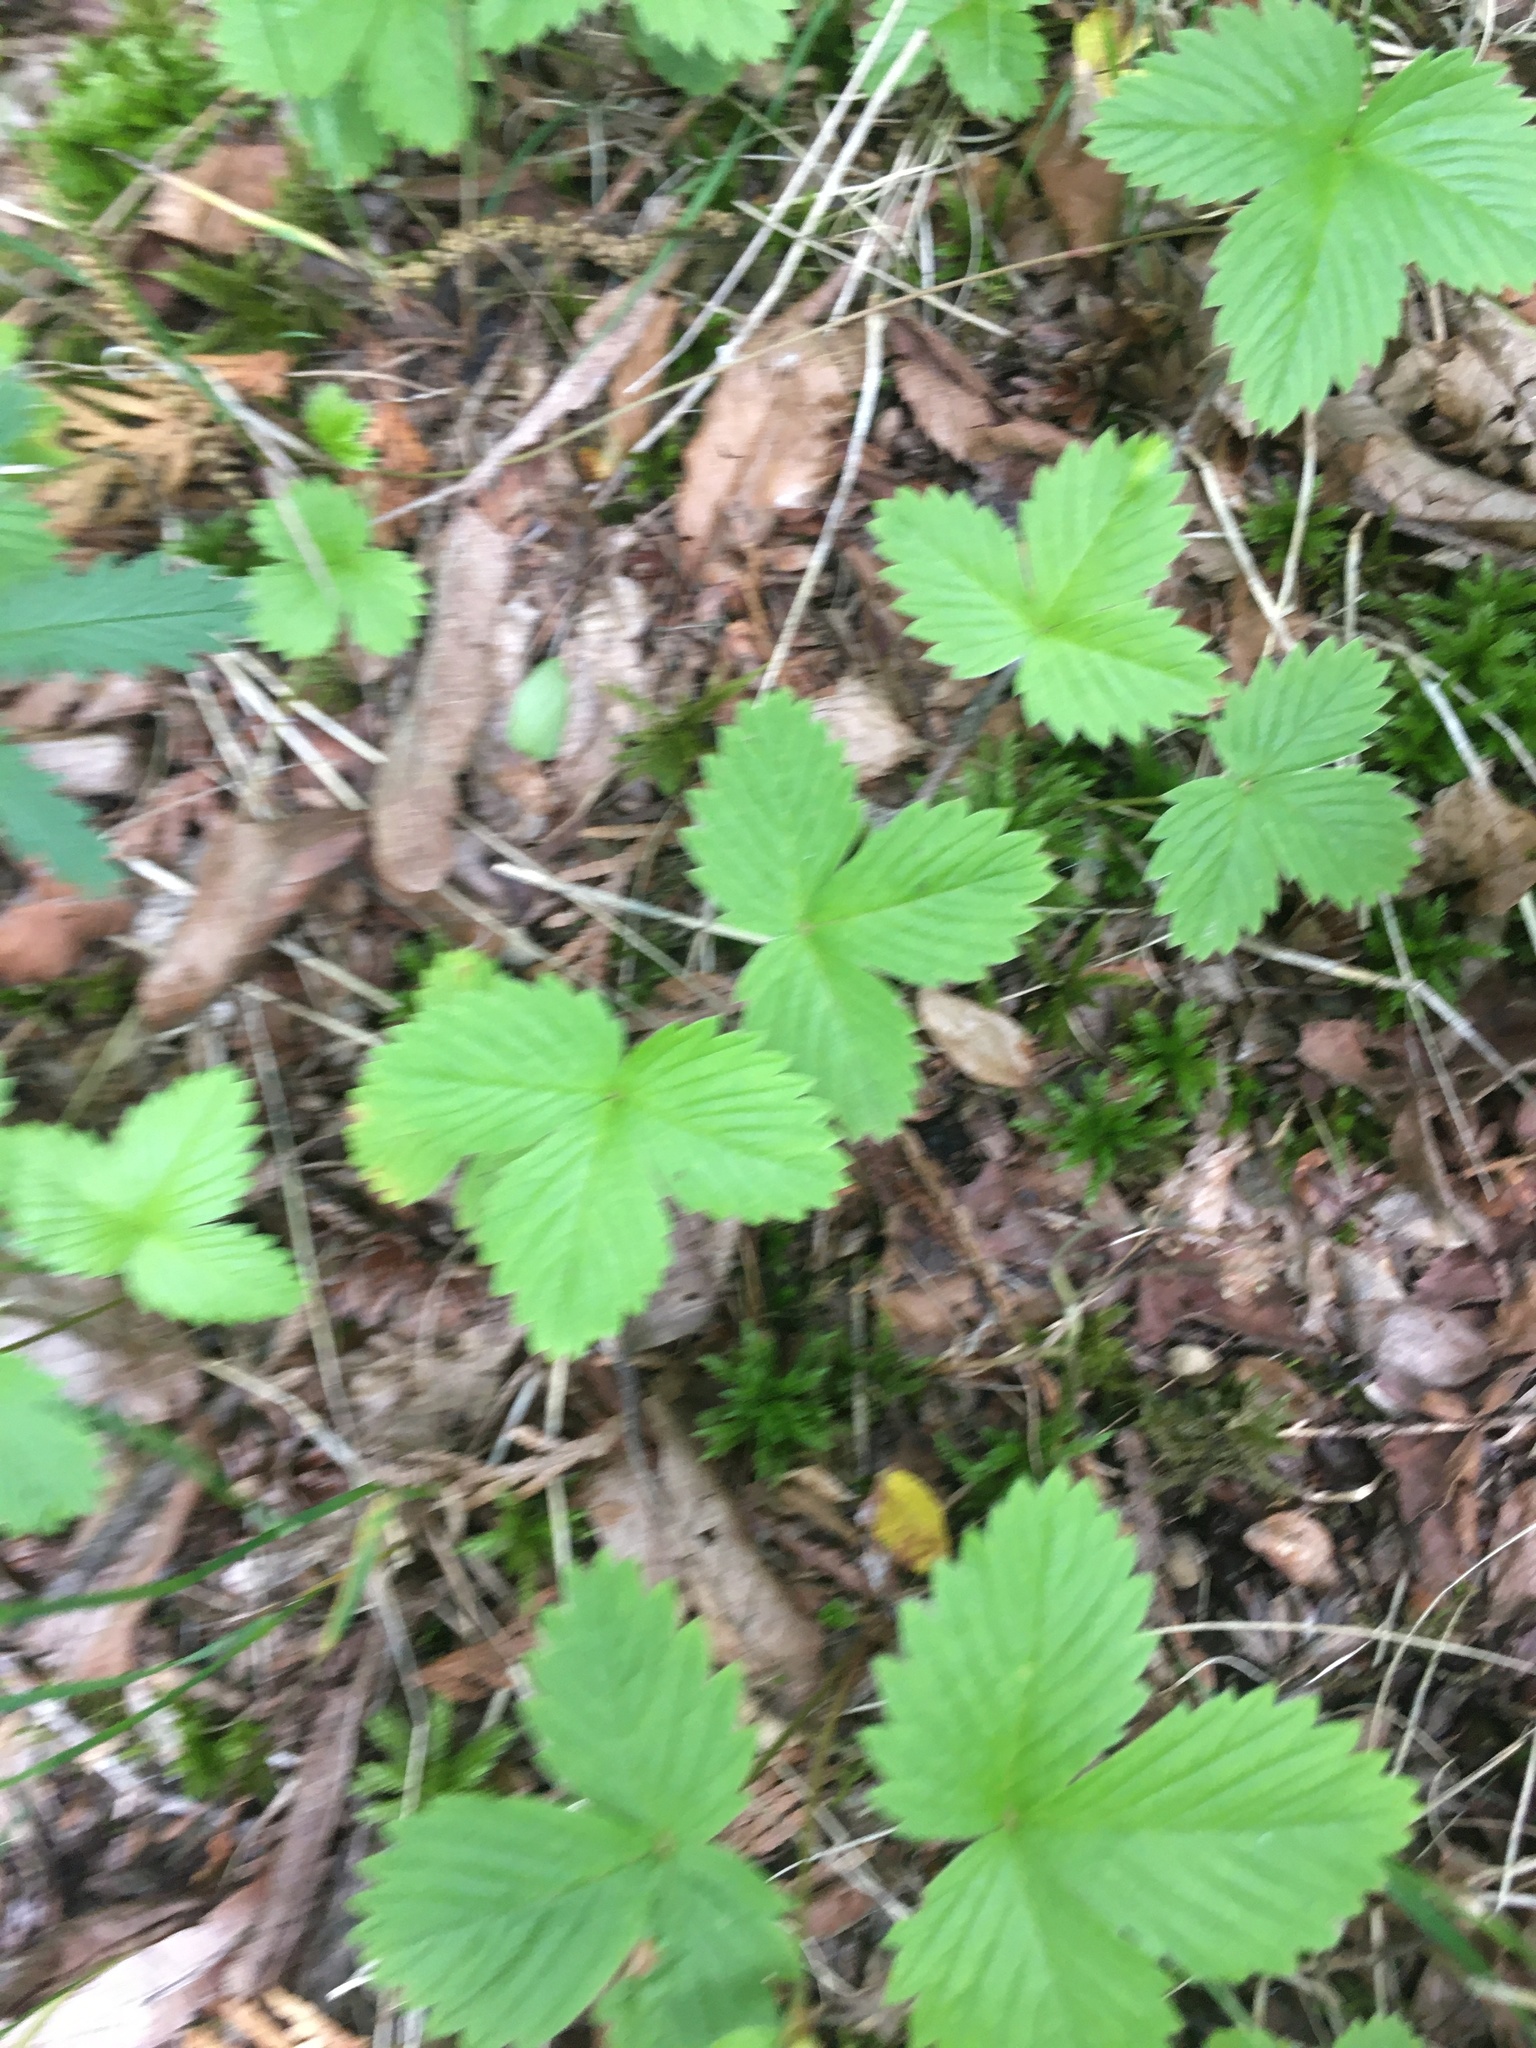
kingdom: Plantae
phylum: Tracheophyta
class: Magnoliopsida
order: Rosales
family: Rosaceae
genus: Fragaria
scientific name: Fragaria vesca
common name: Wild strawberry
